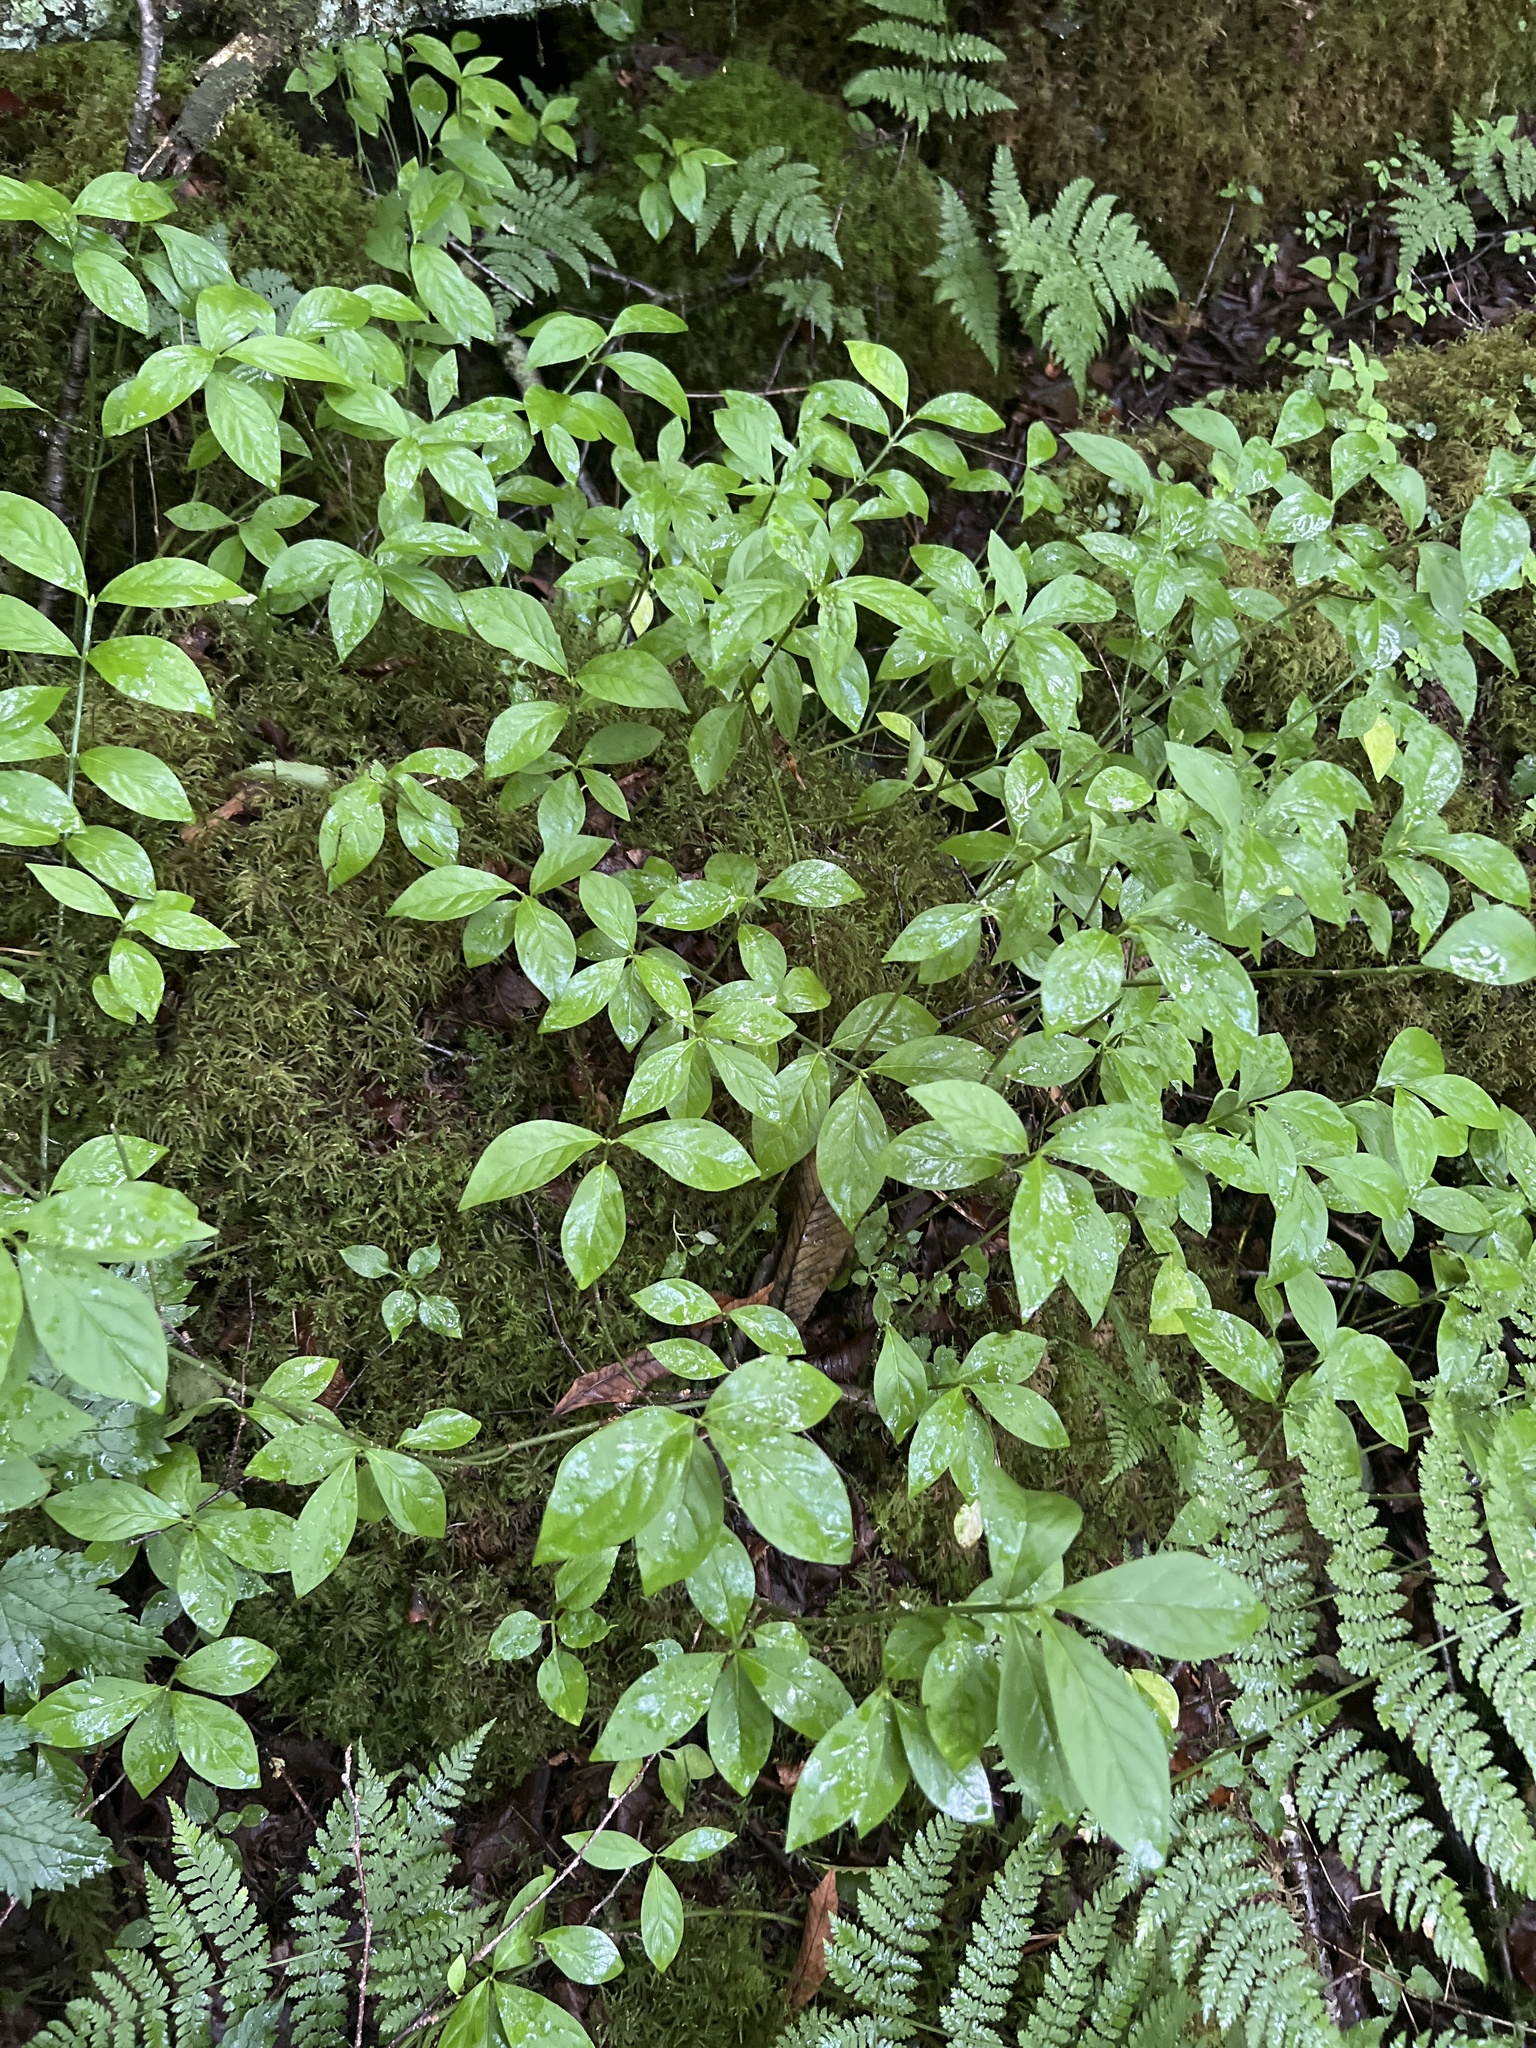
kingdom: Plantae
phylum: Tracheophyta
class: Magnoliopsida
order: Celastrales
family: Celastraceae
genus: Euonymus
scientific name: Euonymus obovatus
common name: Running strawberry-bush
